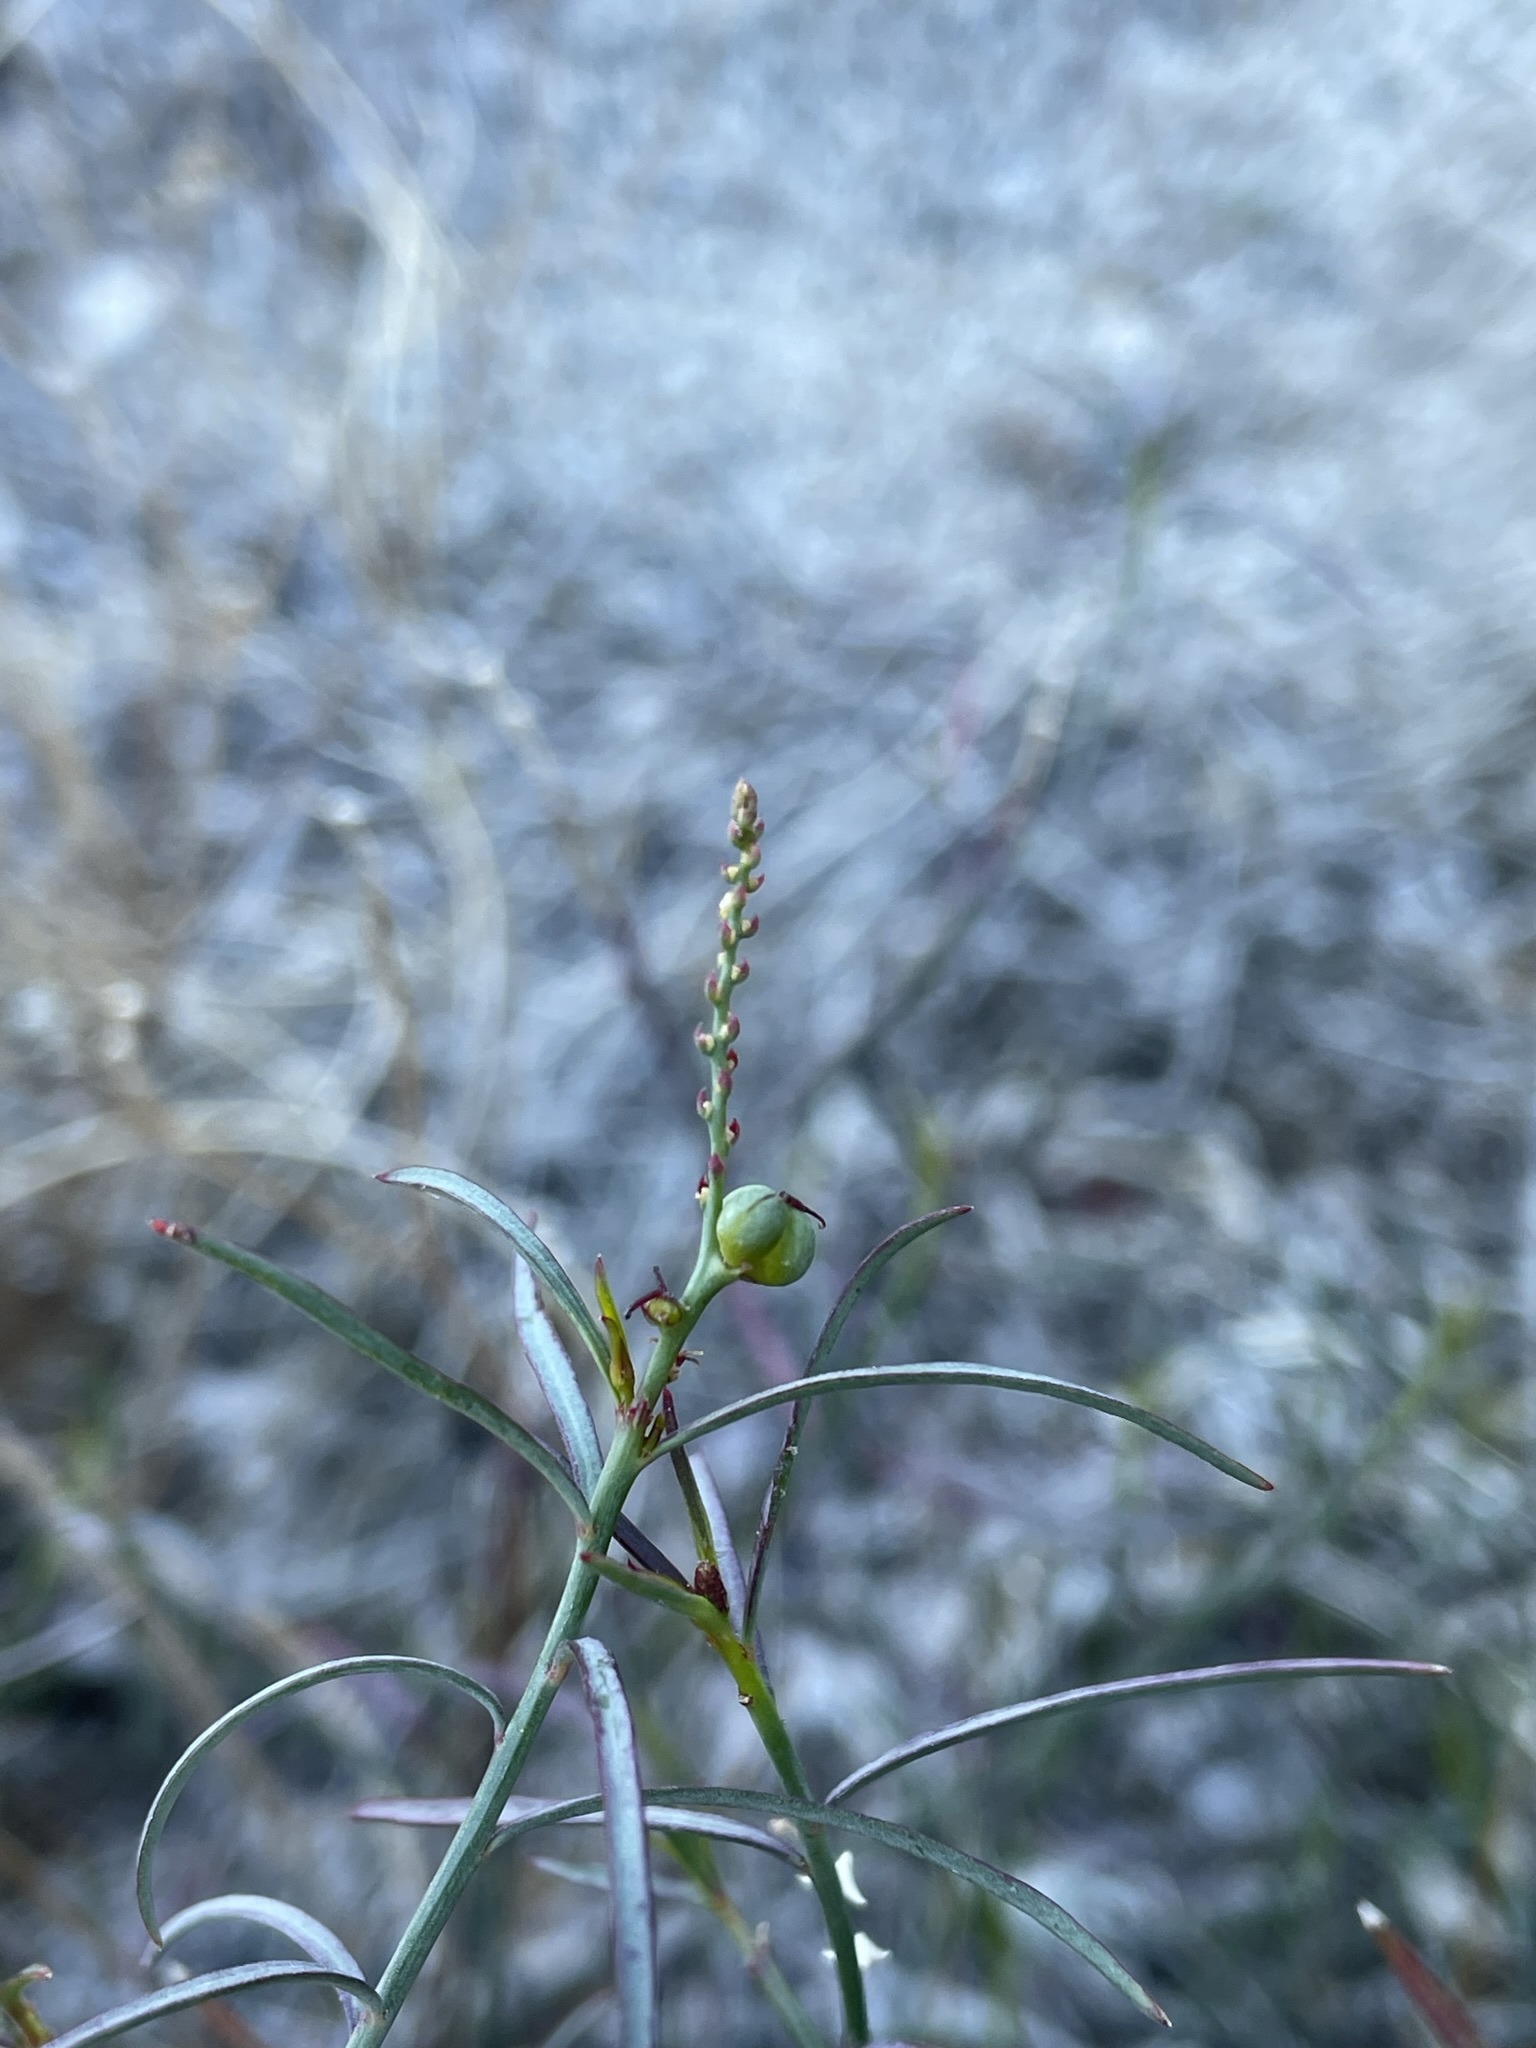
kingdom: Plantae
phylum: Tracheophyta
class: Magnoliopsida
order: Malpighiales
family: Euphorbiaceae
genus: Stillingia
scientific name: Stillingia linearifolia
